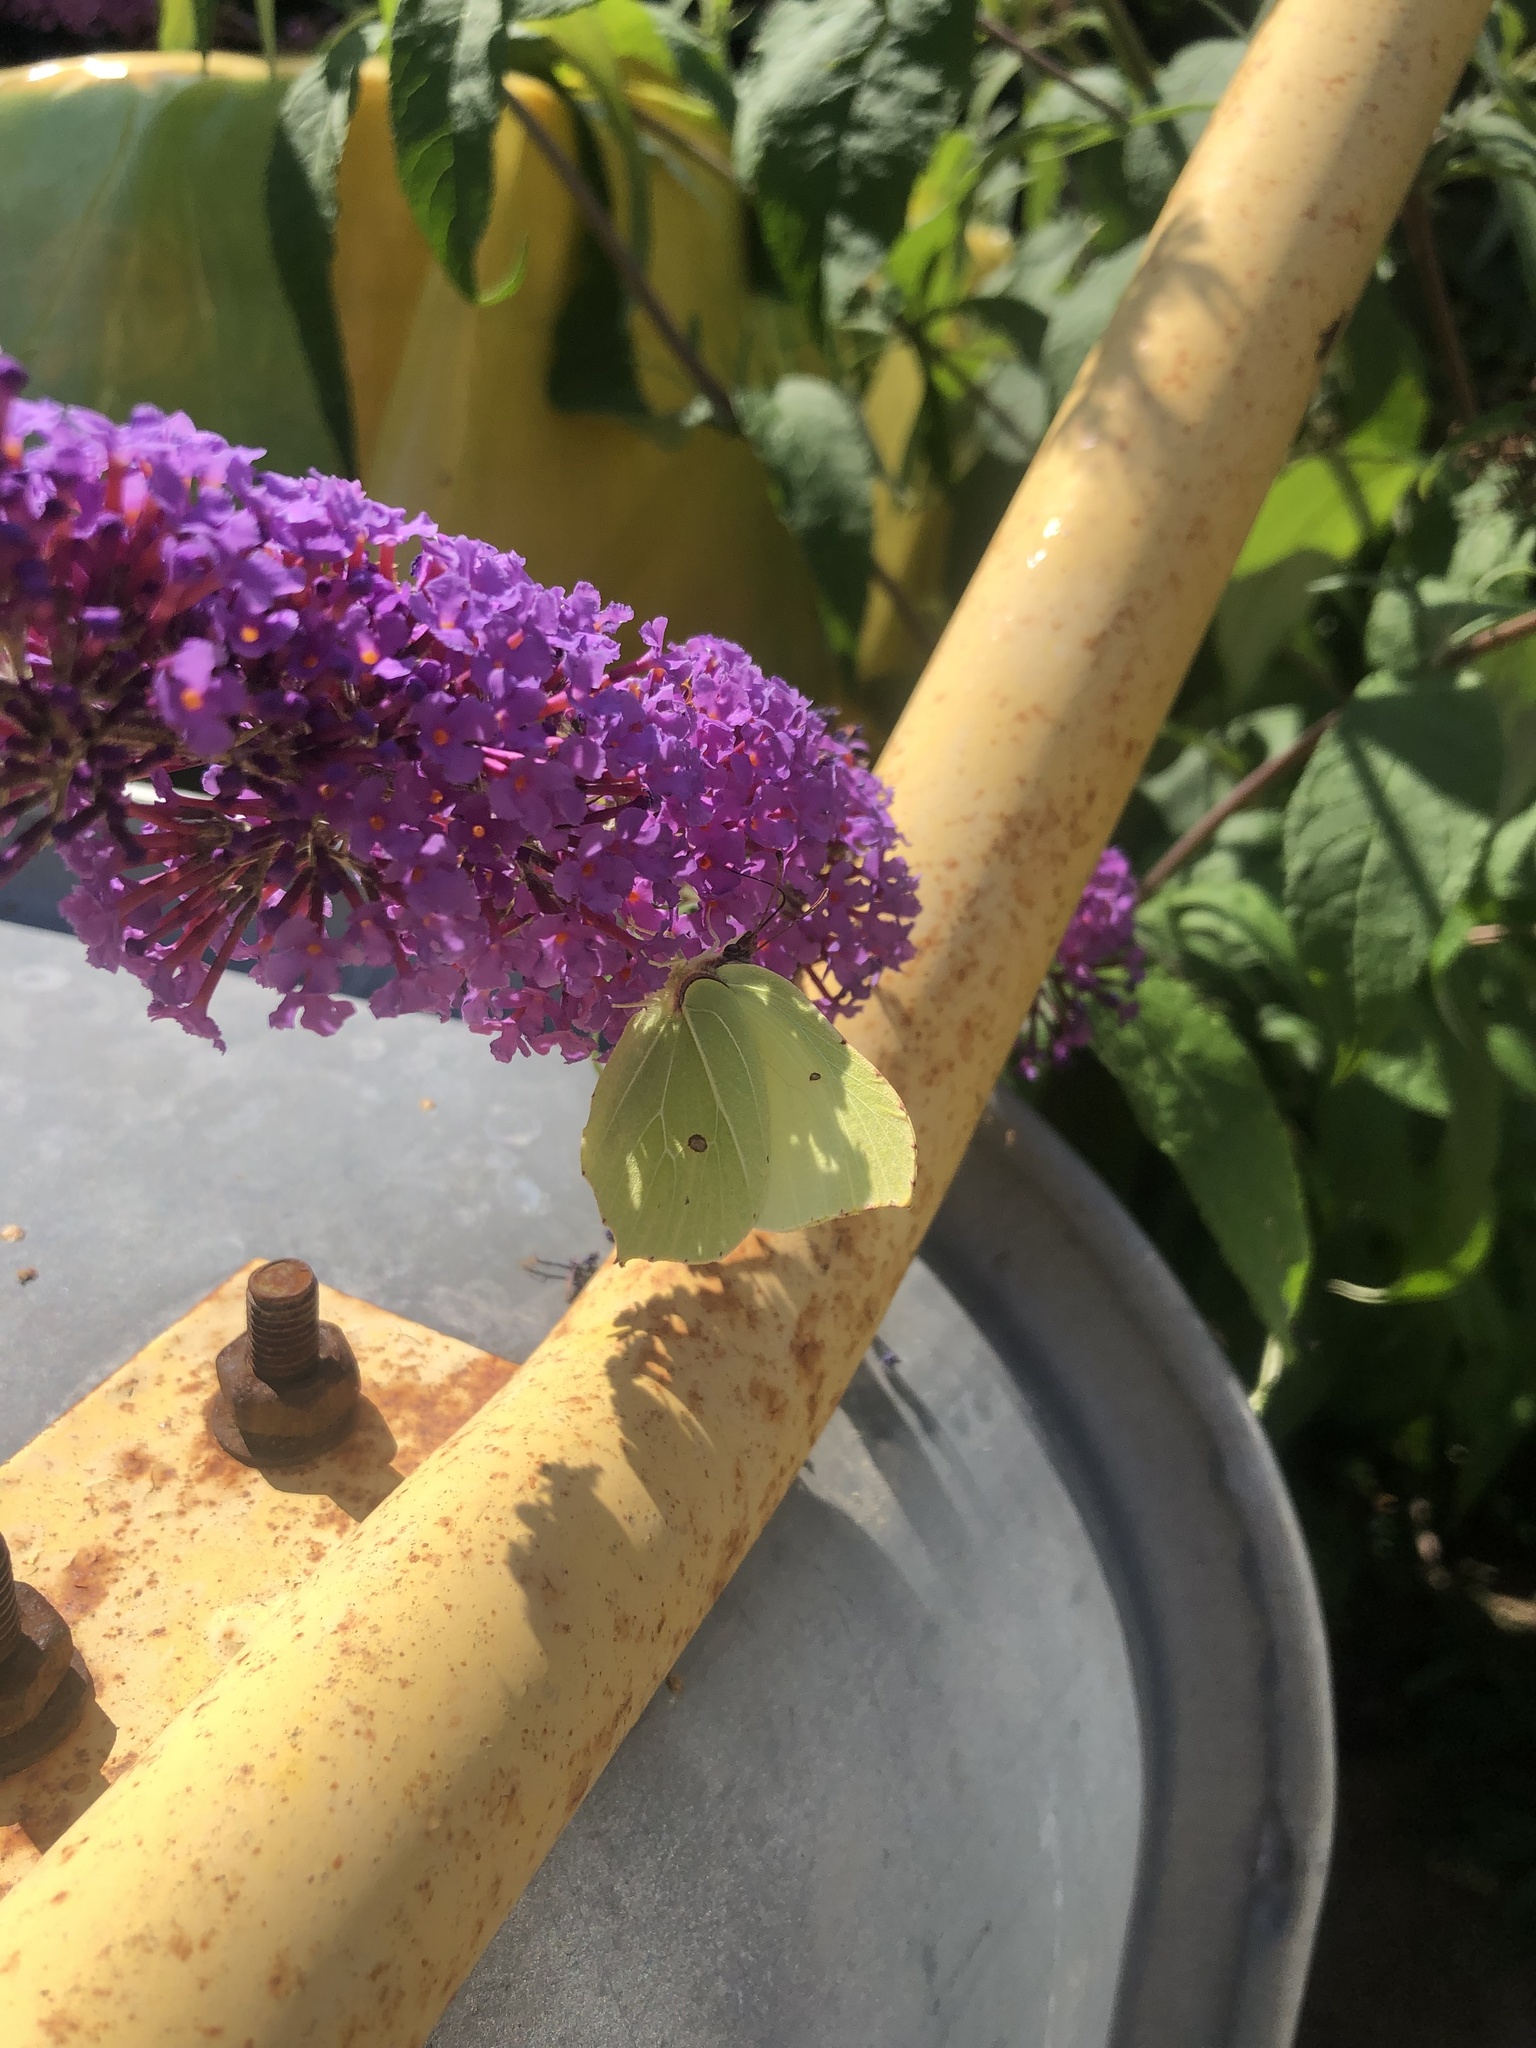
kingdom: Animalia
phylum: Arthropoda
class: Insecta
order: Lepidoptera
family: Pieridae
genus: Gonepteryx
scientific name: Gonepteryx rhamni
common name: Brimstone
